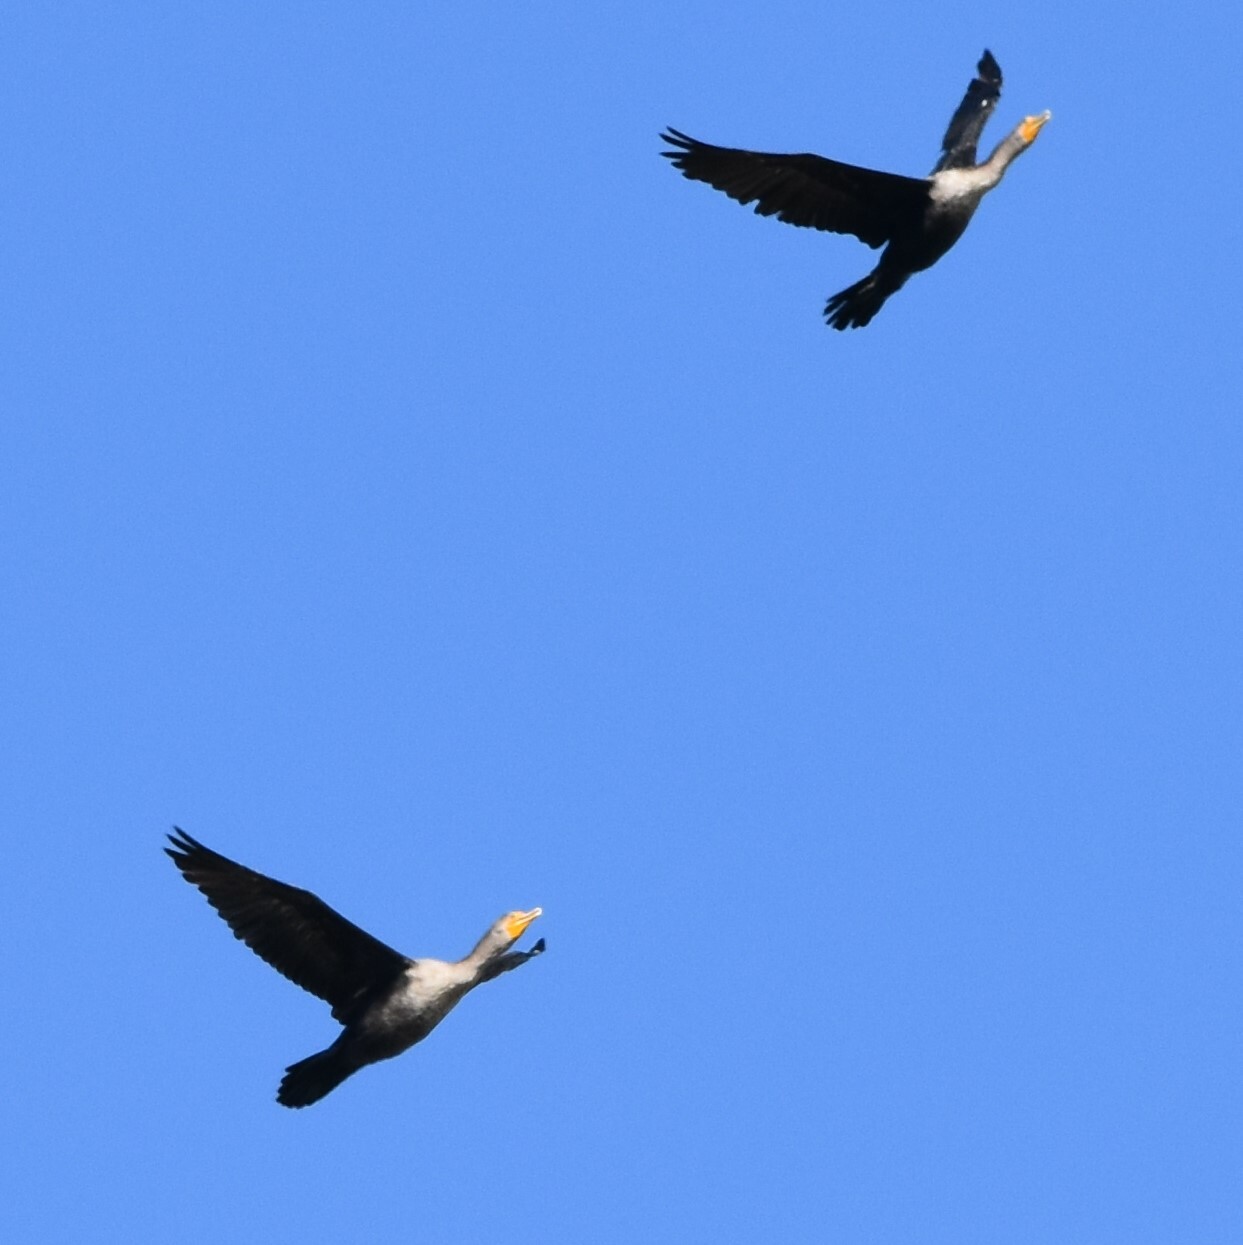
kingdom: Animalia
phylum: Chordata
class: Aves
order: Suliformes
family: Phalacrocoracidae
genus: Phalacrocorax
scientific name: Phalacrocorax auritus
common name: Double-crested cormorant
